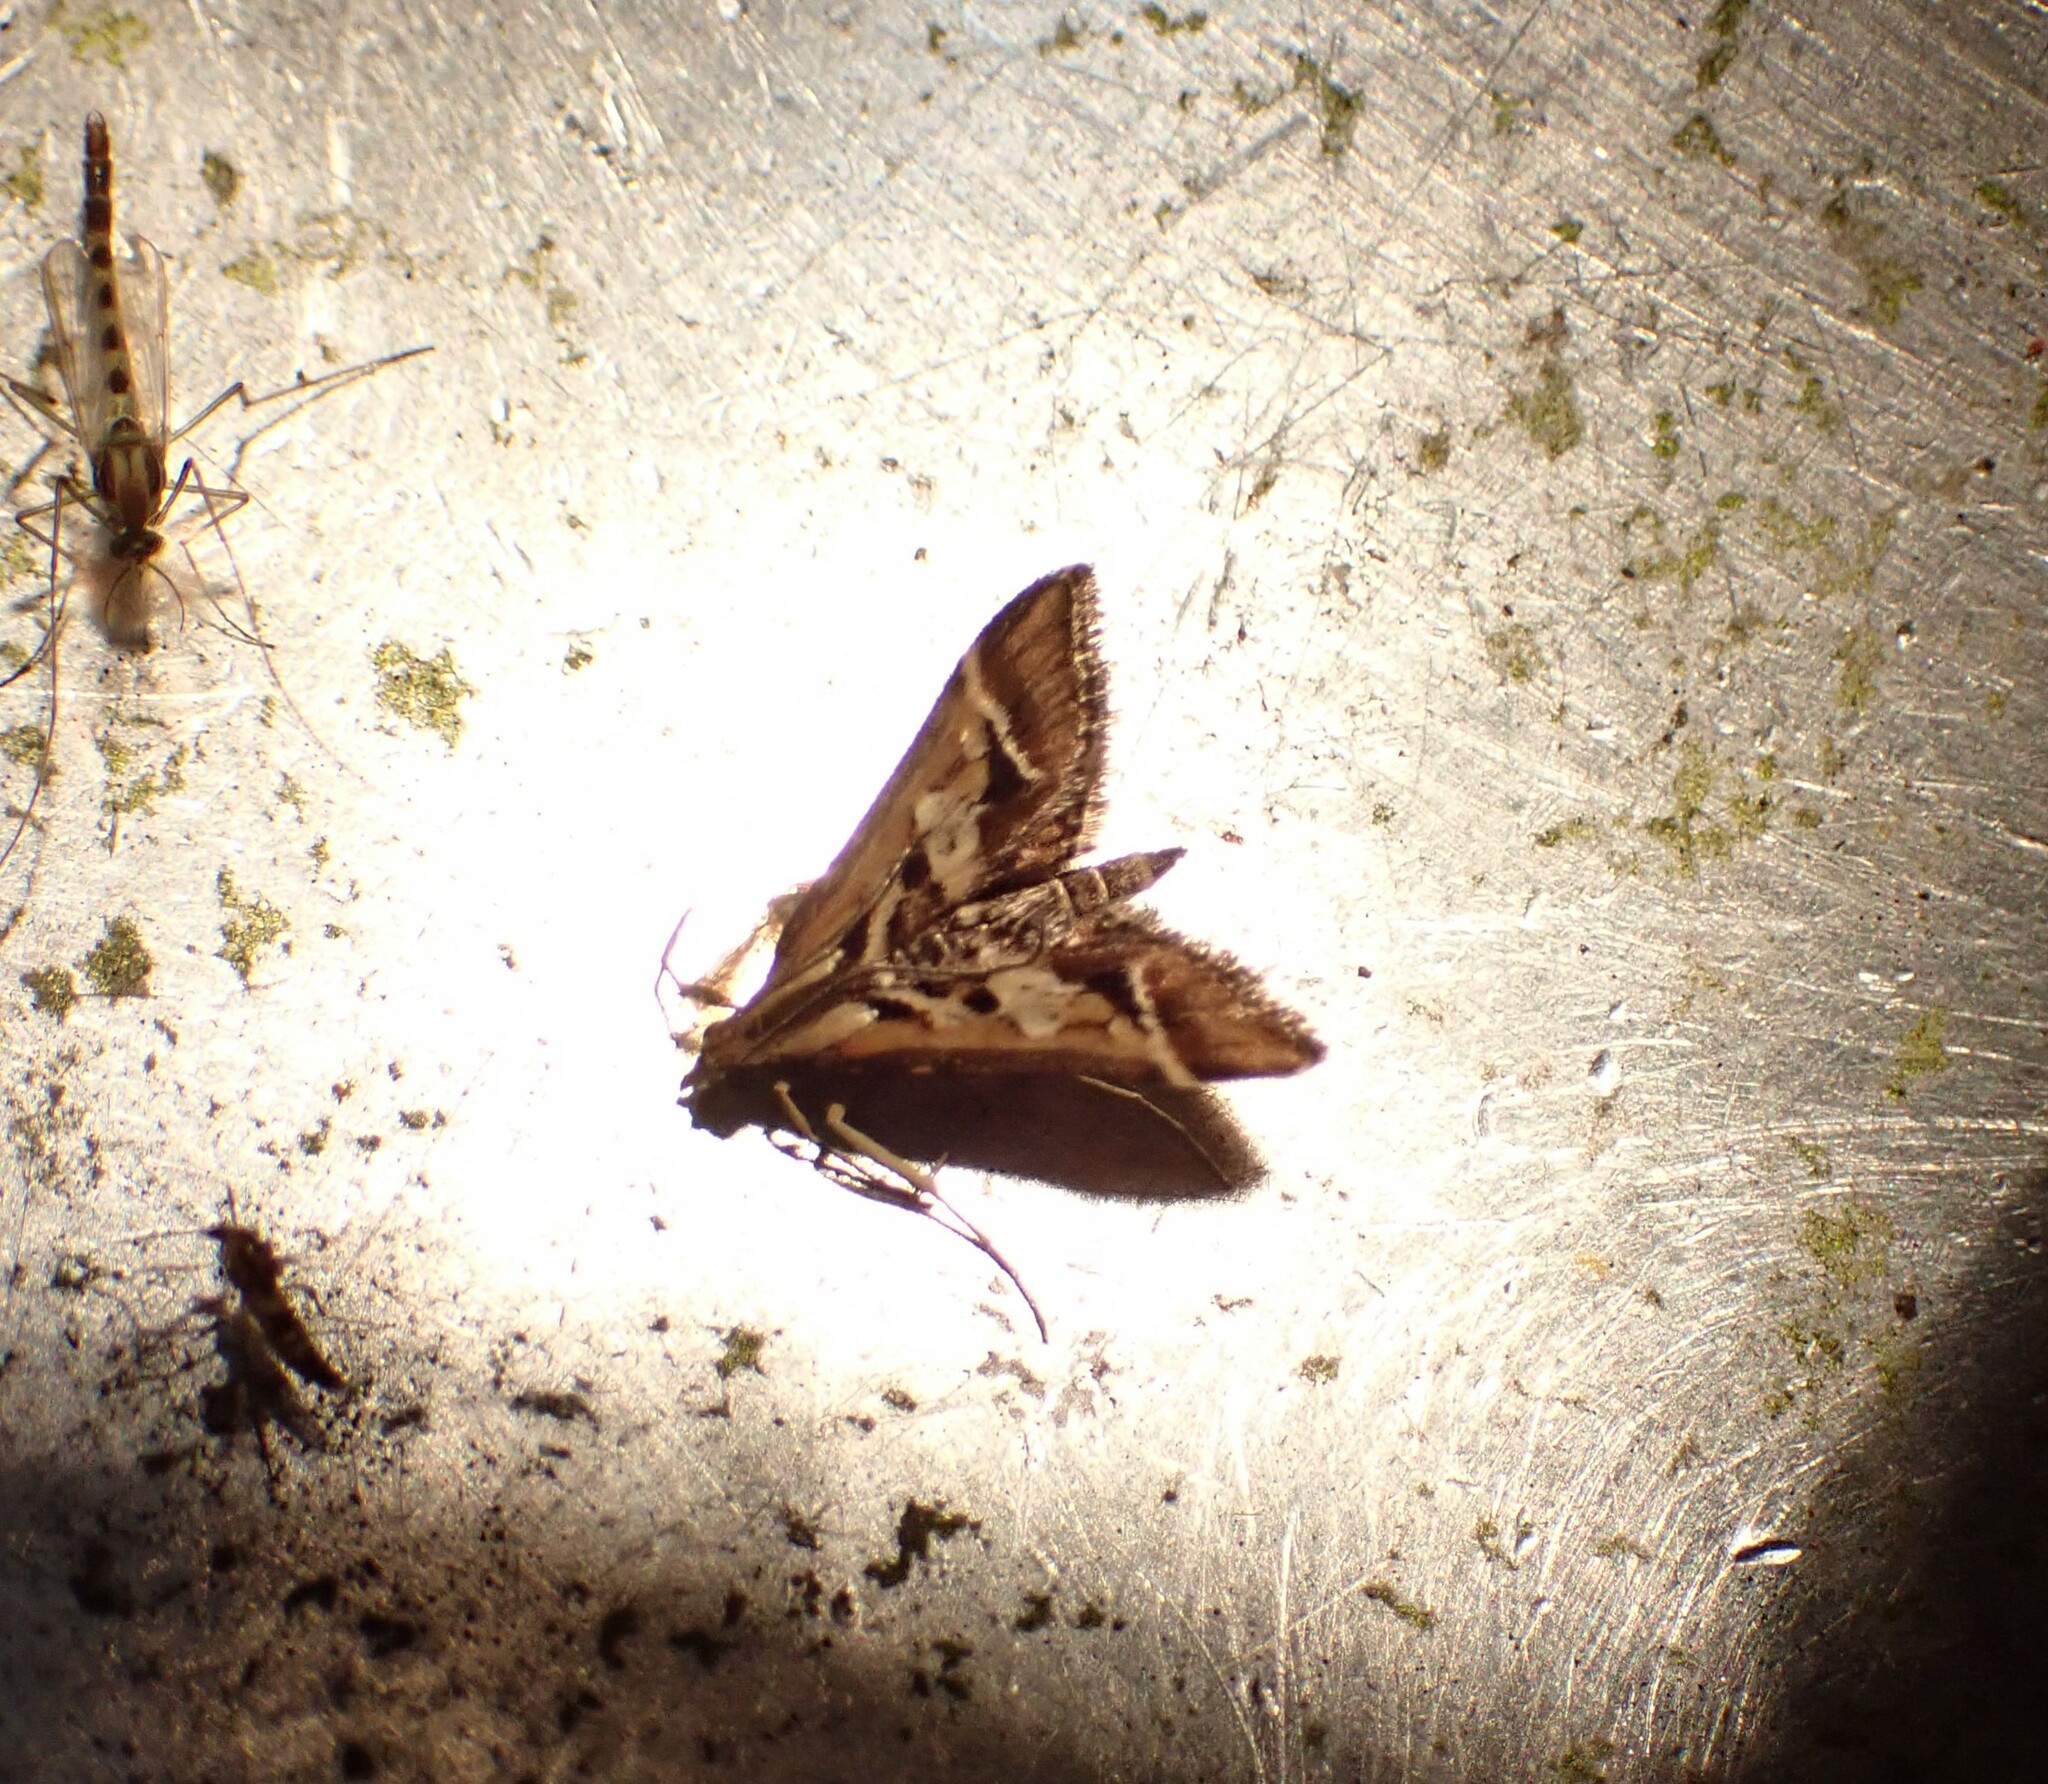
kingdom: Animalia
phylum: Arthropoda
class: Insecta
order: Lepidoptera
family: Crambidae
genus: Diasemia
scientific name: Diasemia grammalis
